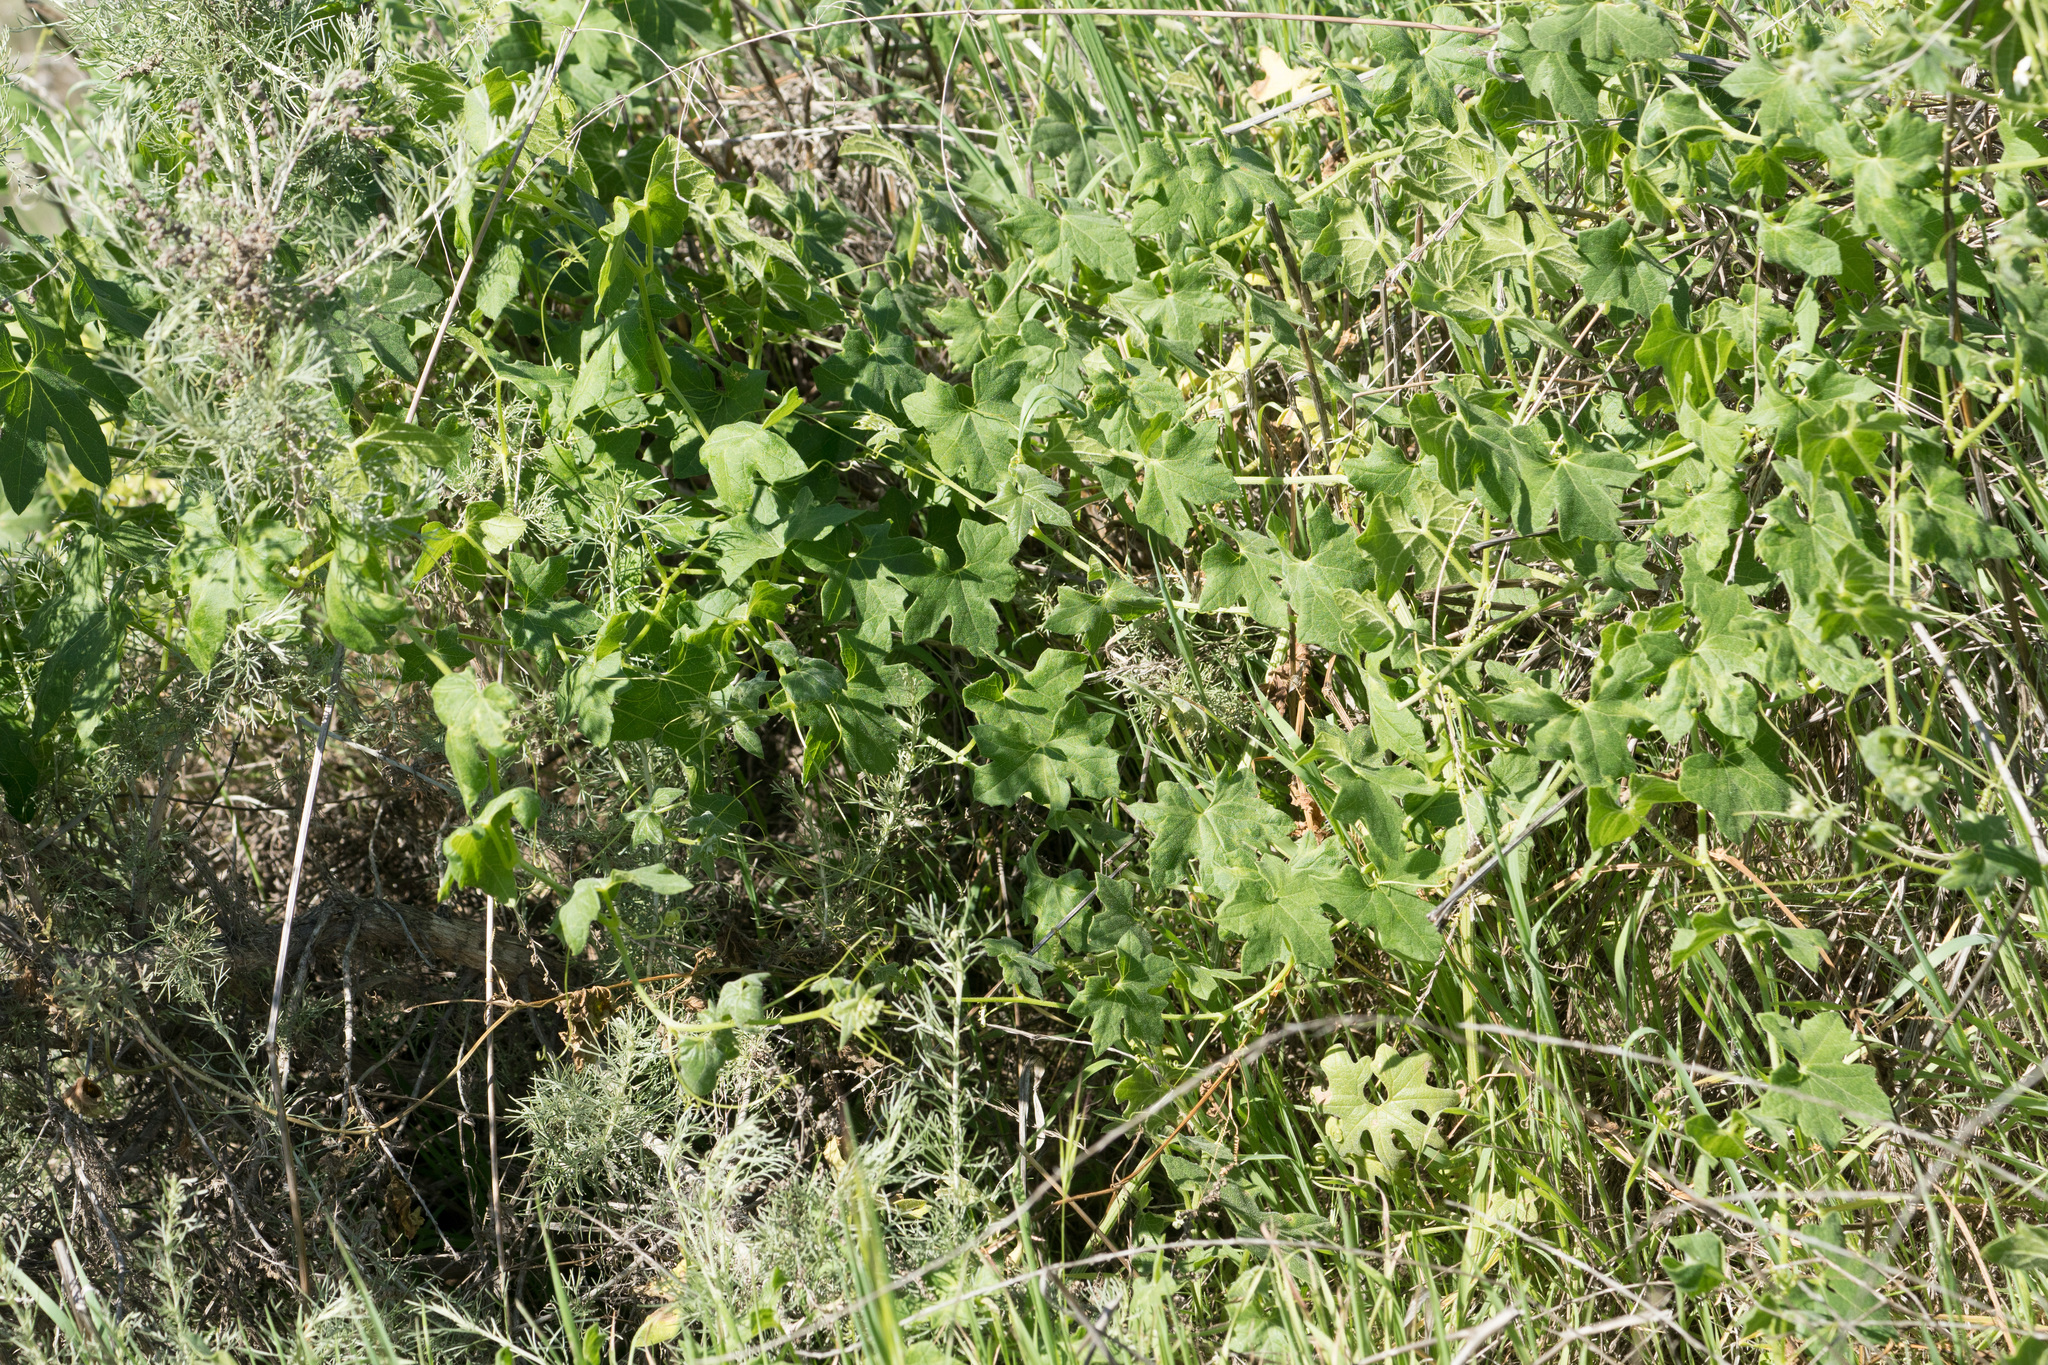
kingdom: Plantae
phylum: Tracheophyta
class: Magnoliopsida
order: Cucurbitales
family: Cucurbitaceae
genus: Marah
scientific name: Marah macrocarpa
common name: Cucamonga manroot
